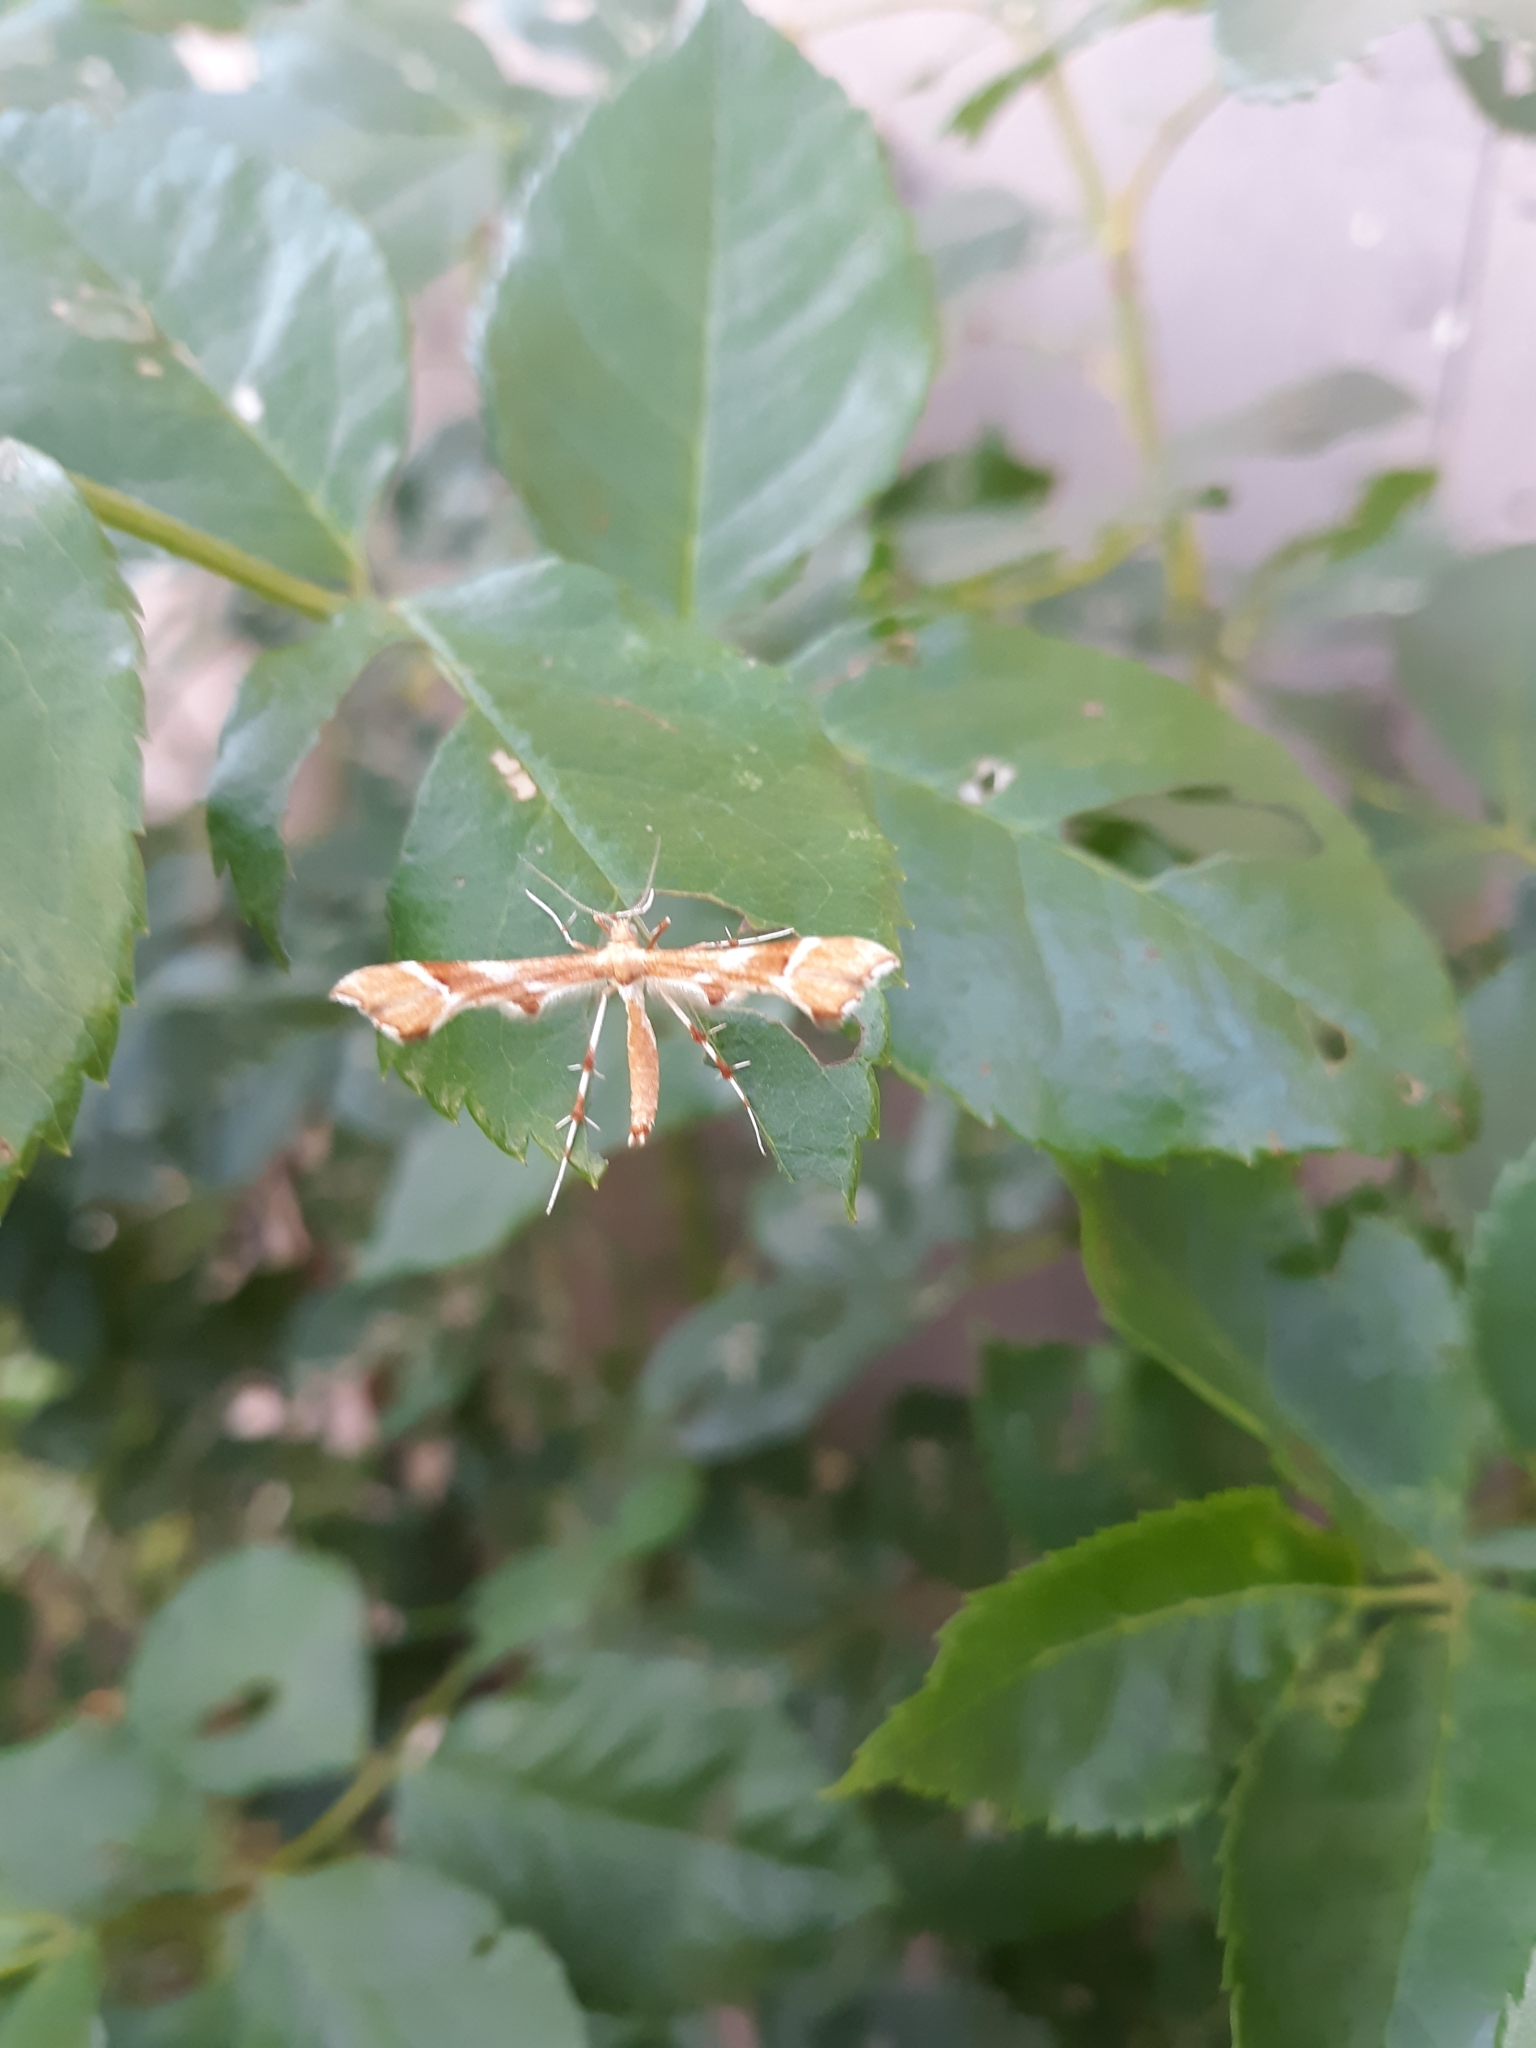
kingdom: Animalia
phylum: Arthropoda
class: Insecta
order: Lepidoptera
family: Pterophoridae
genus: Cnaemidophorus
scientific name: Cnaemidophorus rhododactyla
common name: Rose plume
